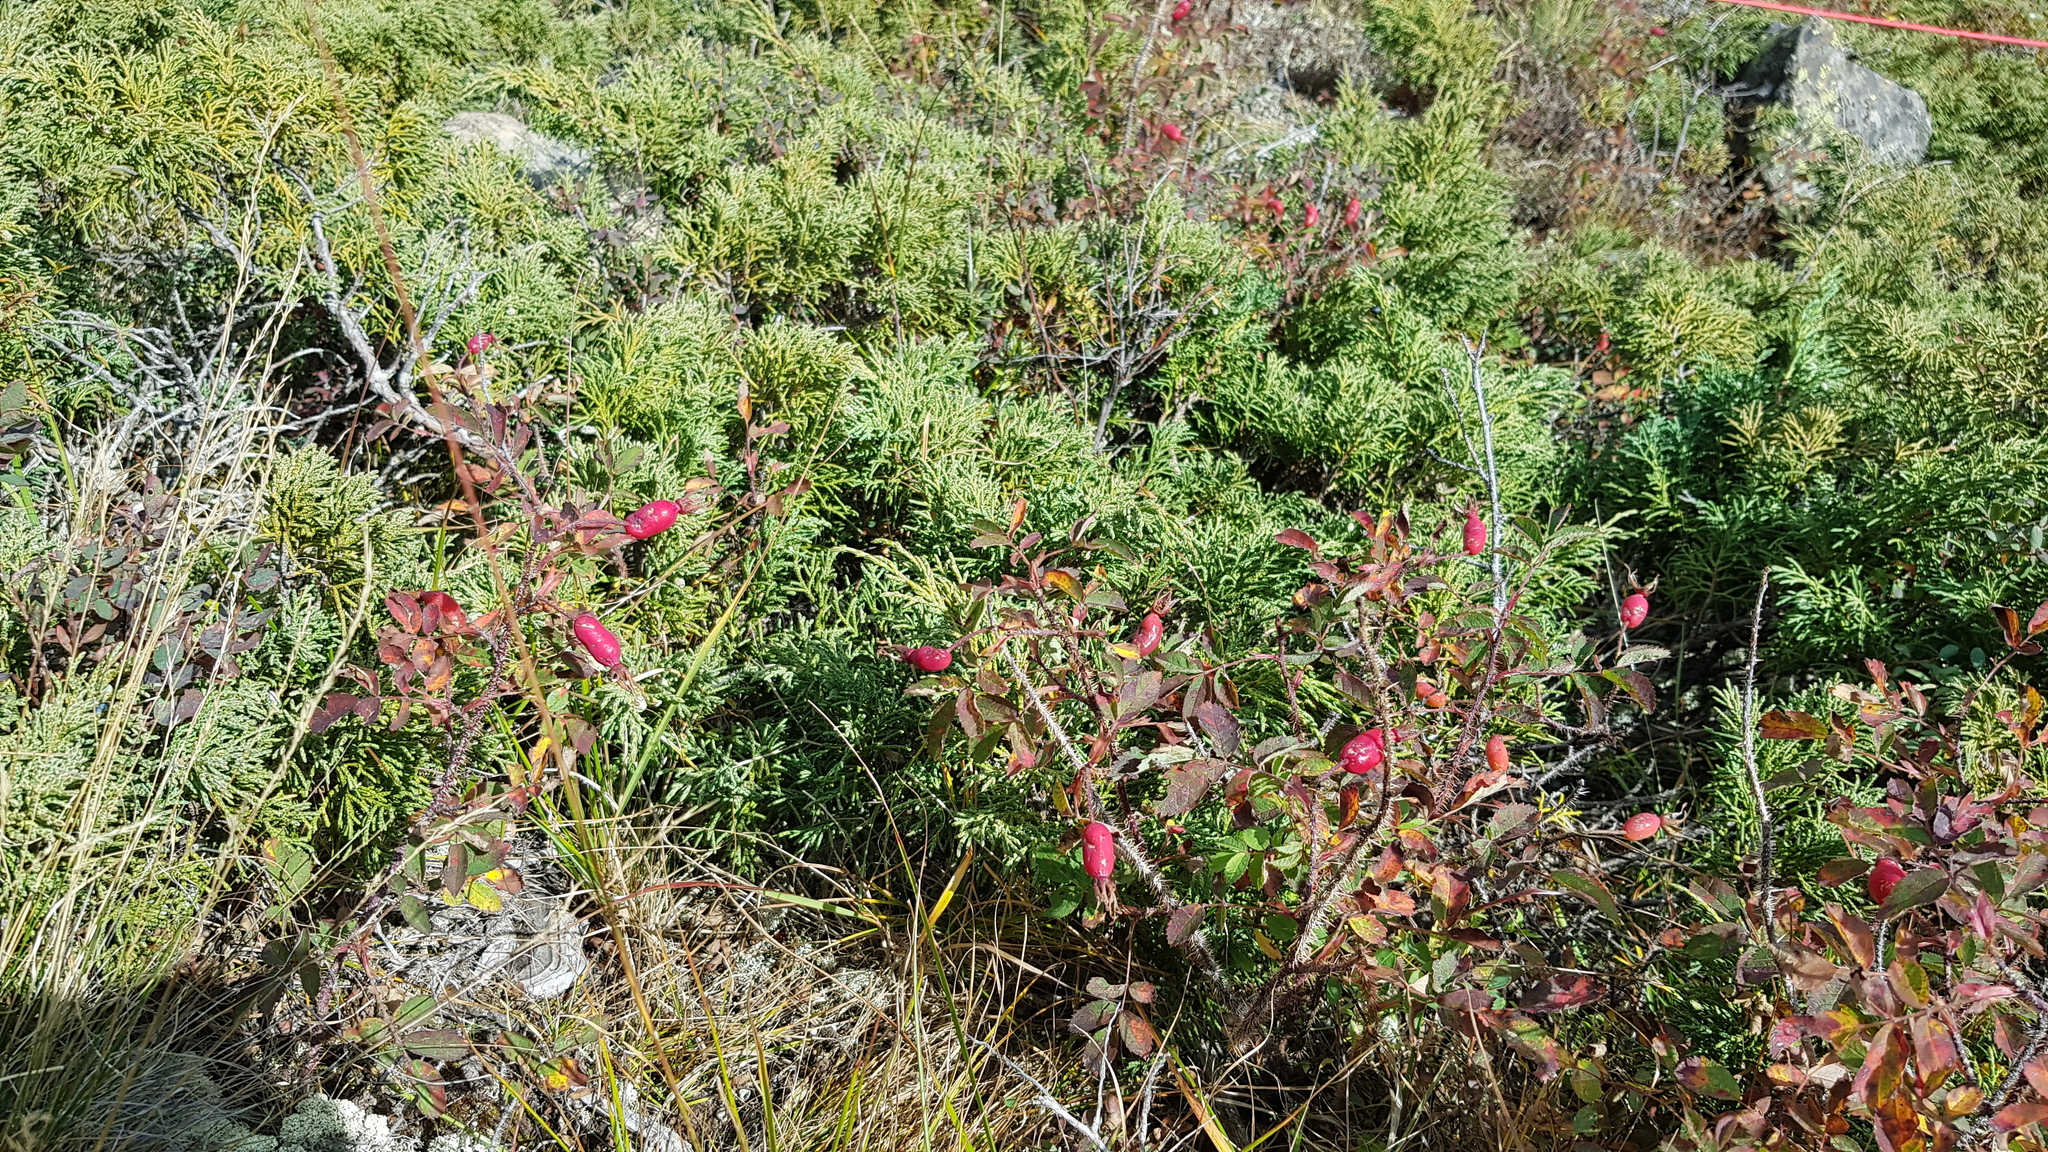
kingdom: Plantae
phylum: Tracheophyta
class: Magnoliopsida
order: Rosales
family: Rosaceae
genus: Rosa
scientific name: Rosa acicularis
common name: Prickly rose
